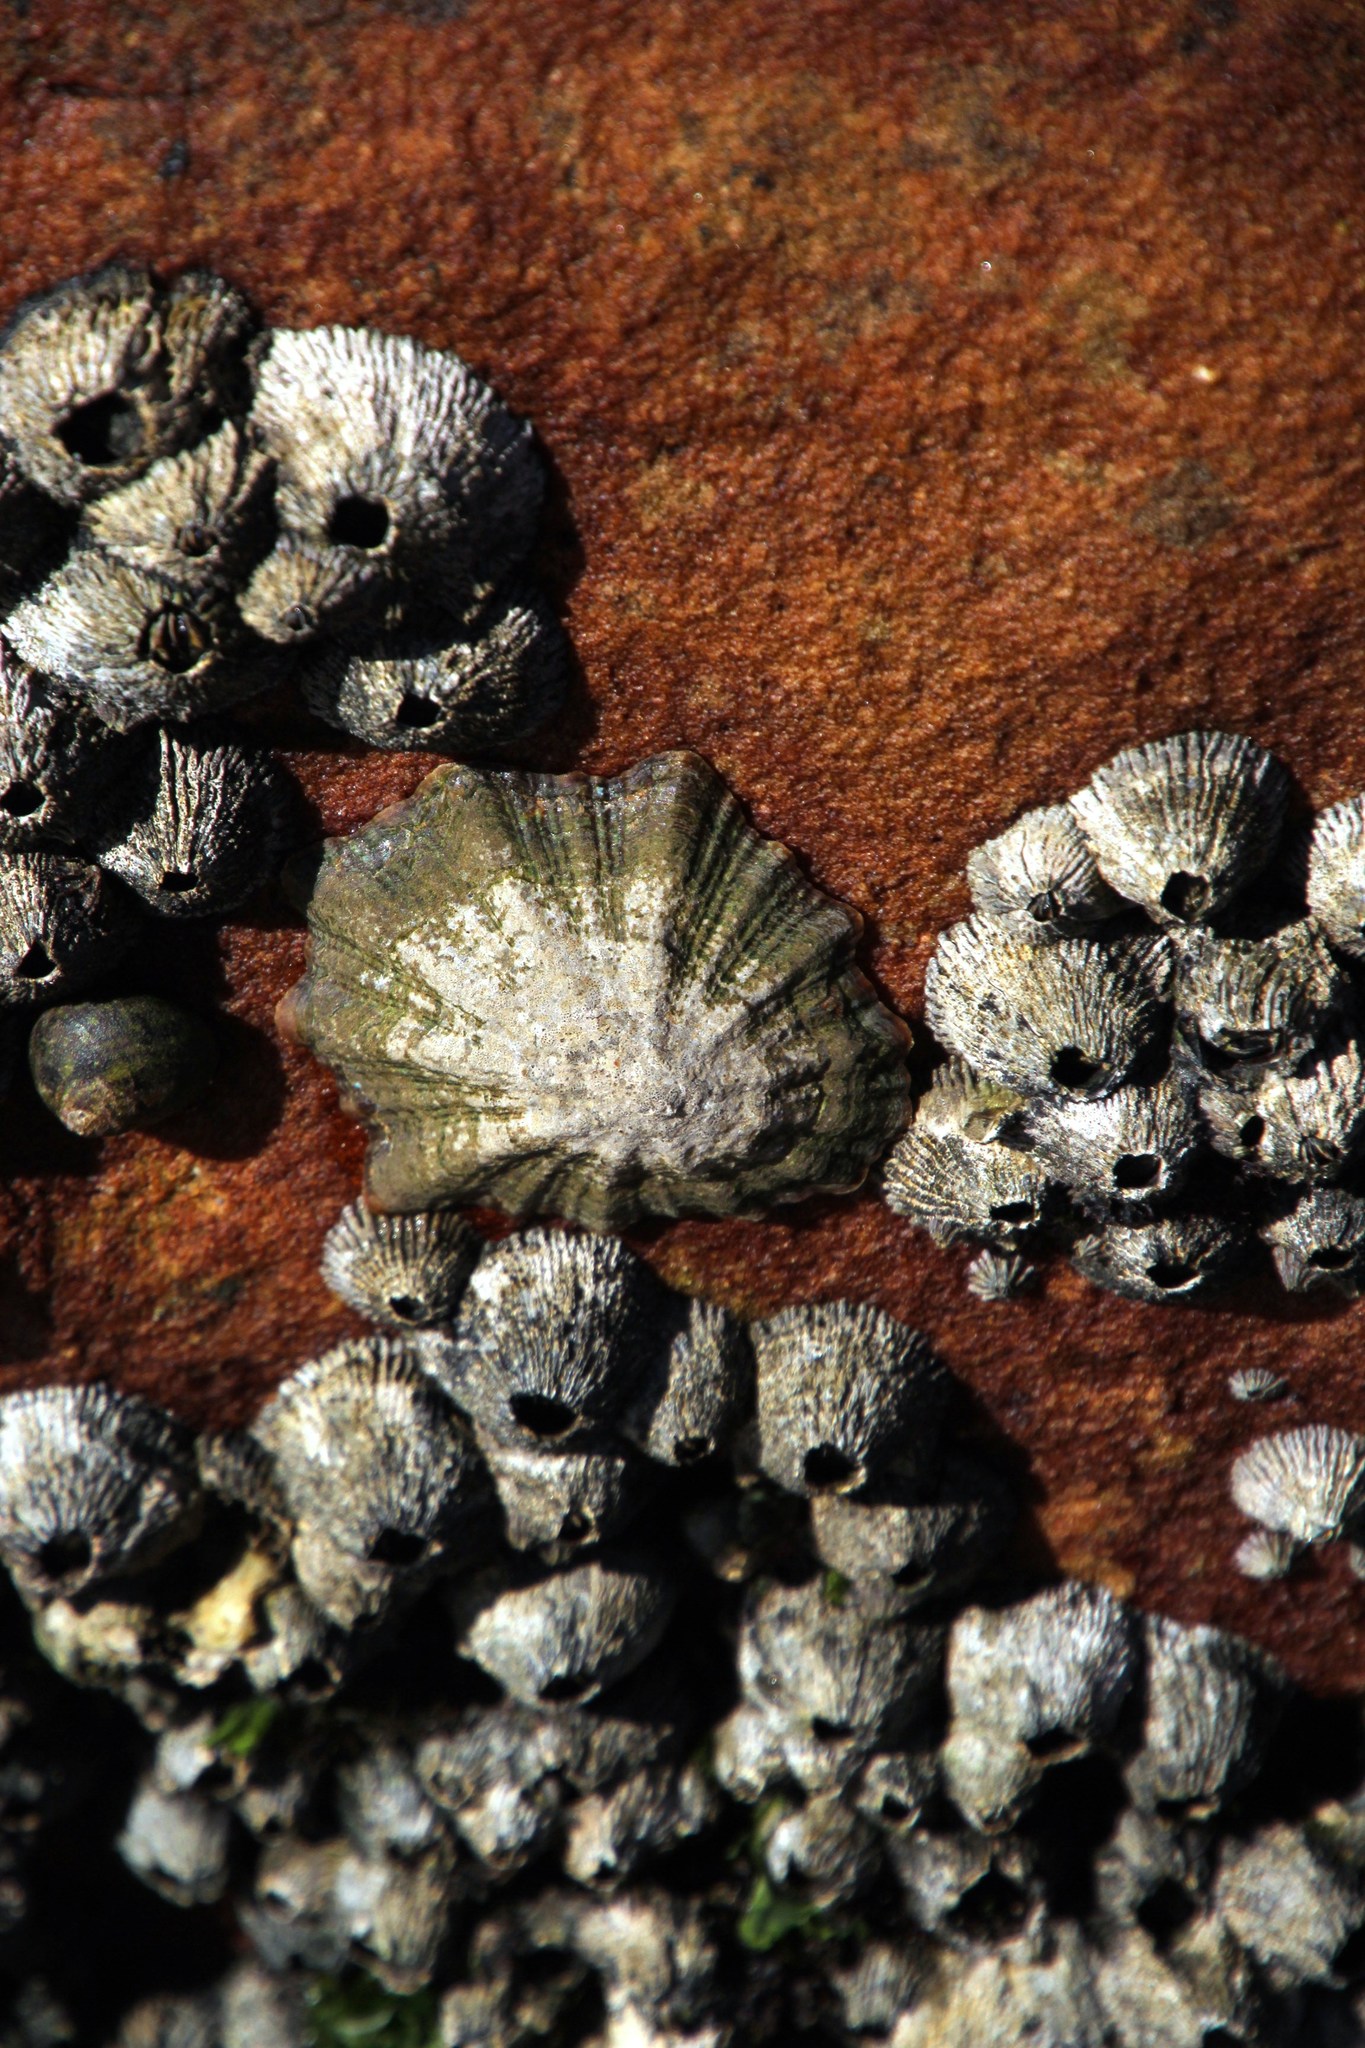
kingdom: Animalia
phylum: Mollusca
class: Gastropoda
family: Patellidae
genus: Scutellastra
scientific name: Scutellastra tabularis
